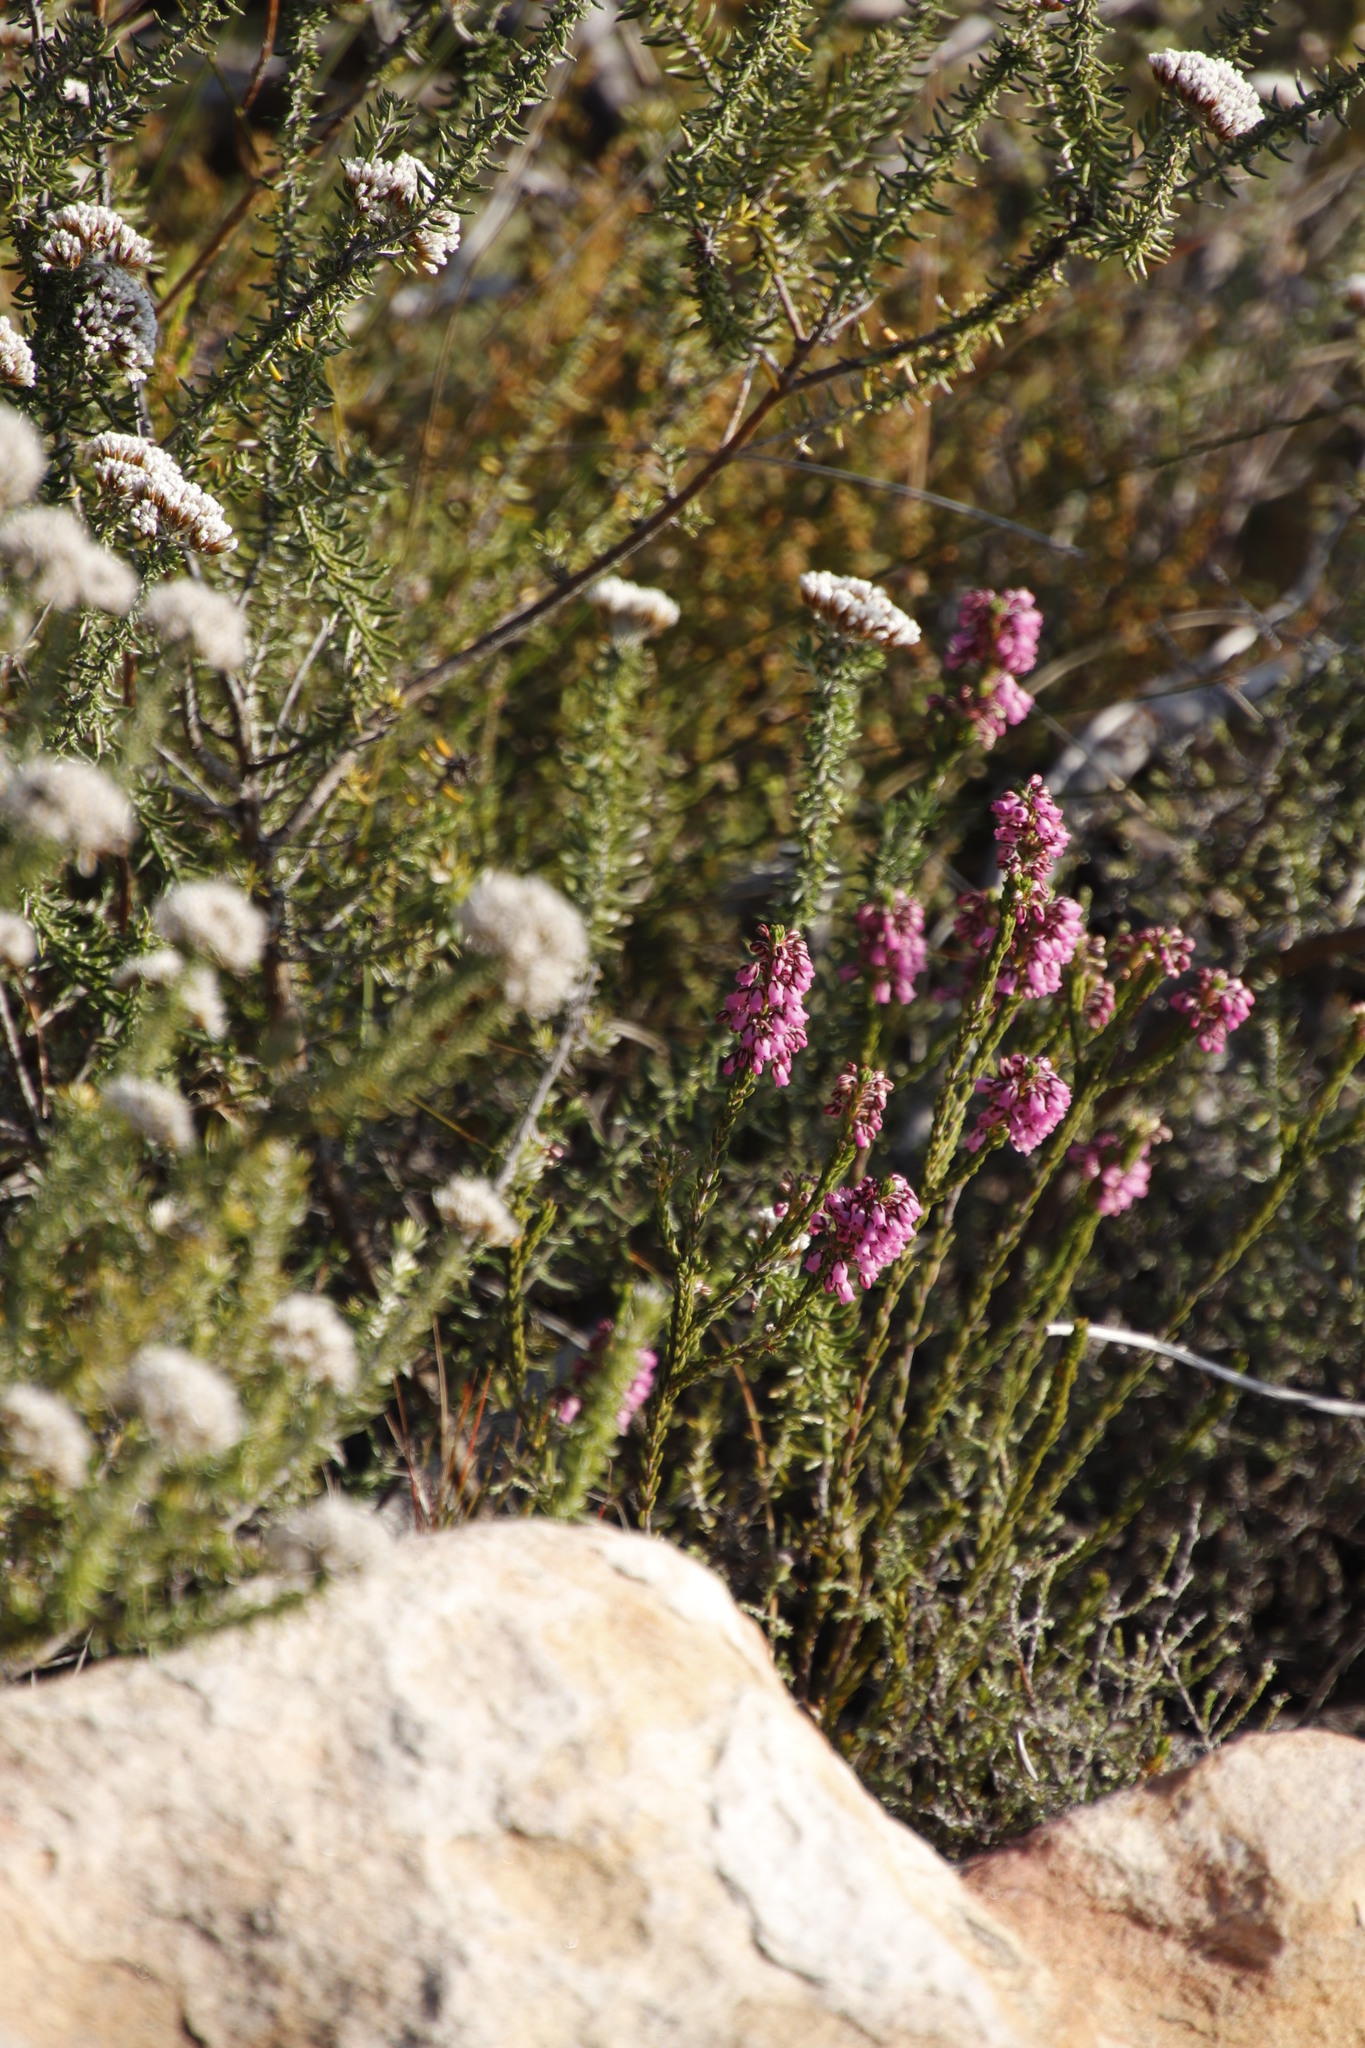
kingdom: Plantae
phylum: Tracheophyta
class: Magnoliopsida
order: Ericales
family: Ericaceae
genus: Erica
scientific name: Erica pulchella
